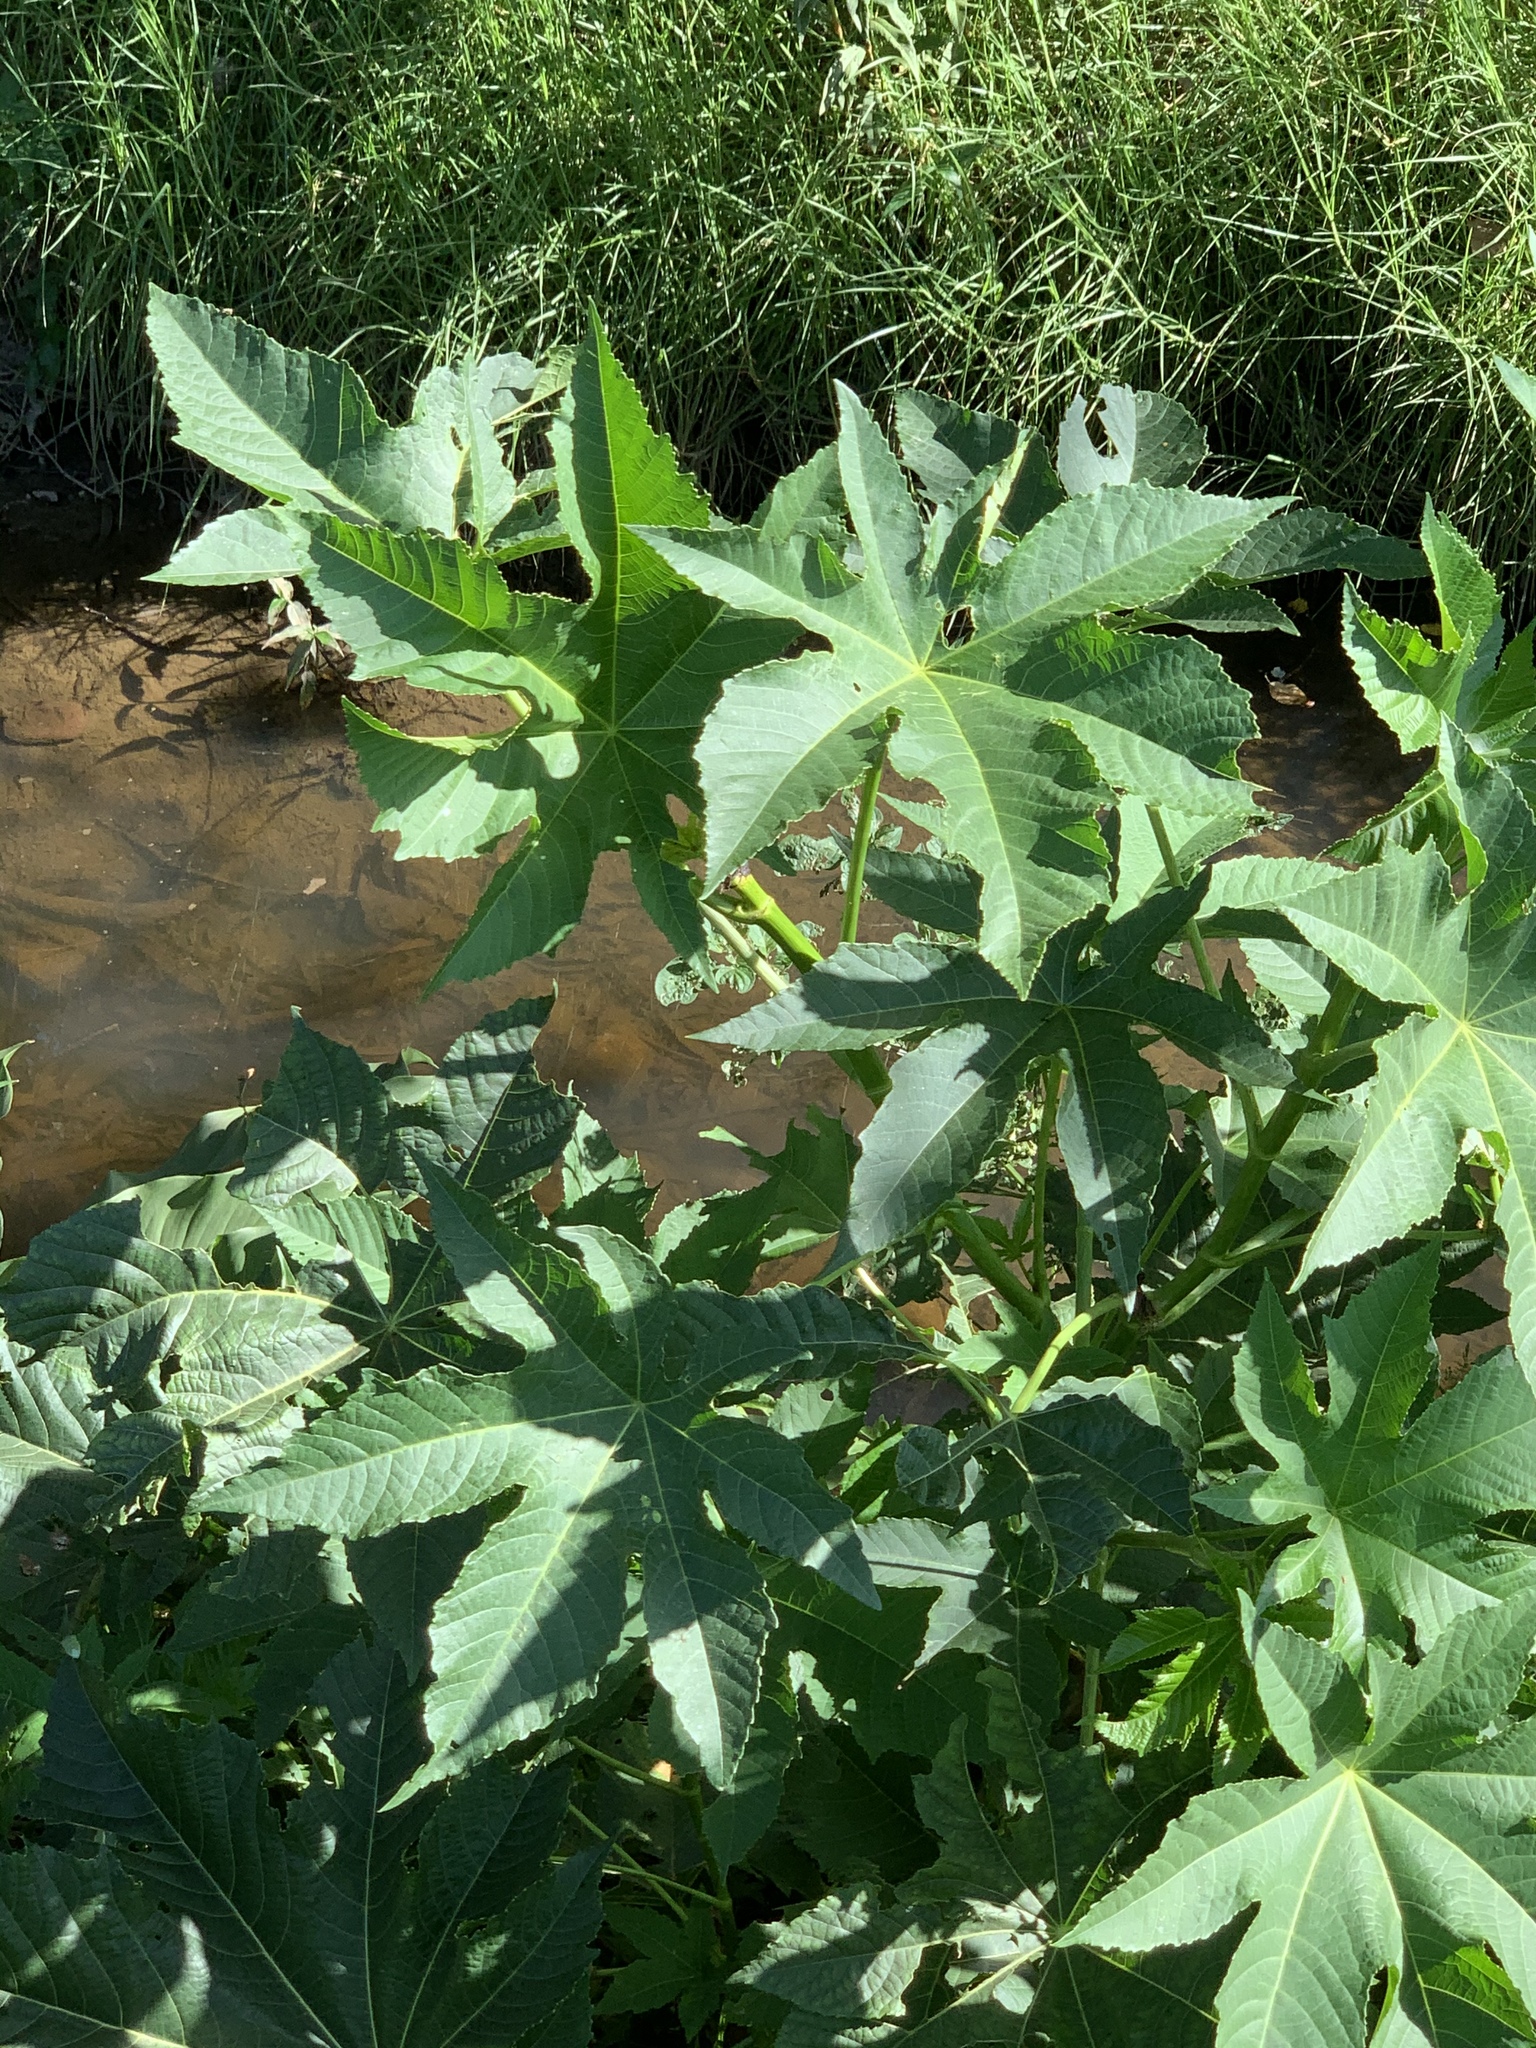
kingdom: Plantae
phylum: Tracheophyta
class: Magnoliopsida
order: Malpighiales
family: Euphorbiaceae
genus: Ricinus
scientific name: Ricinus communis
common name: Castor-oil-plant
